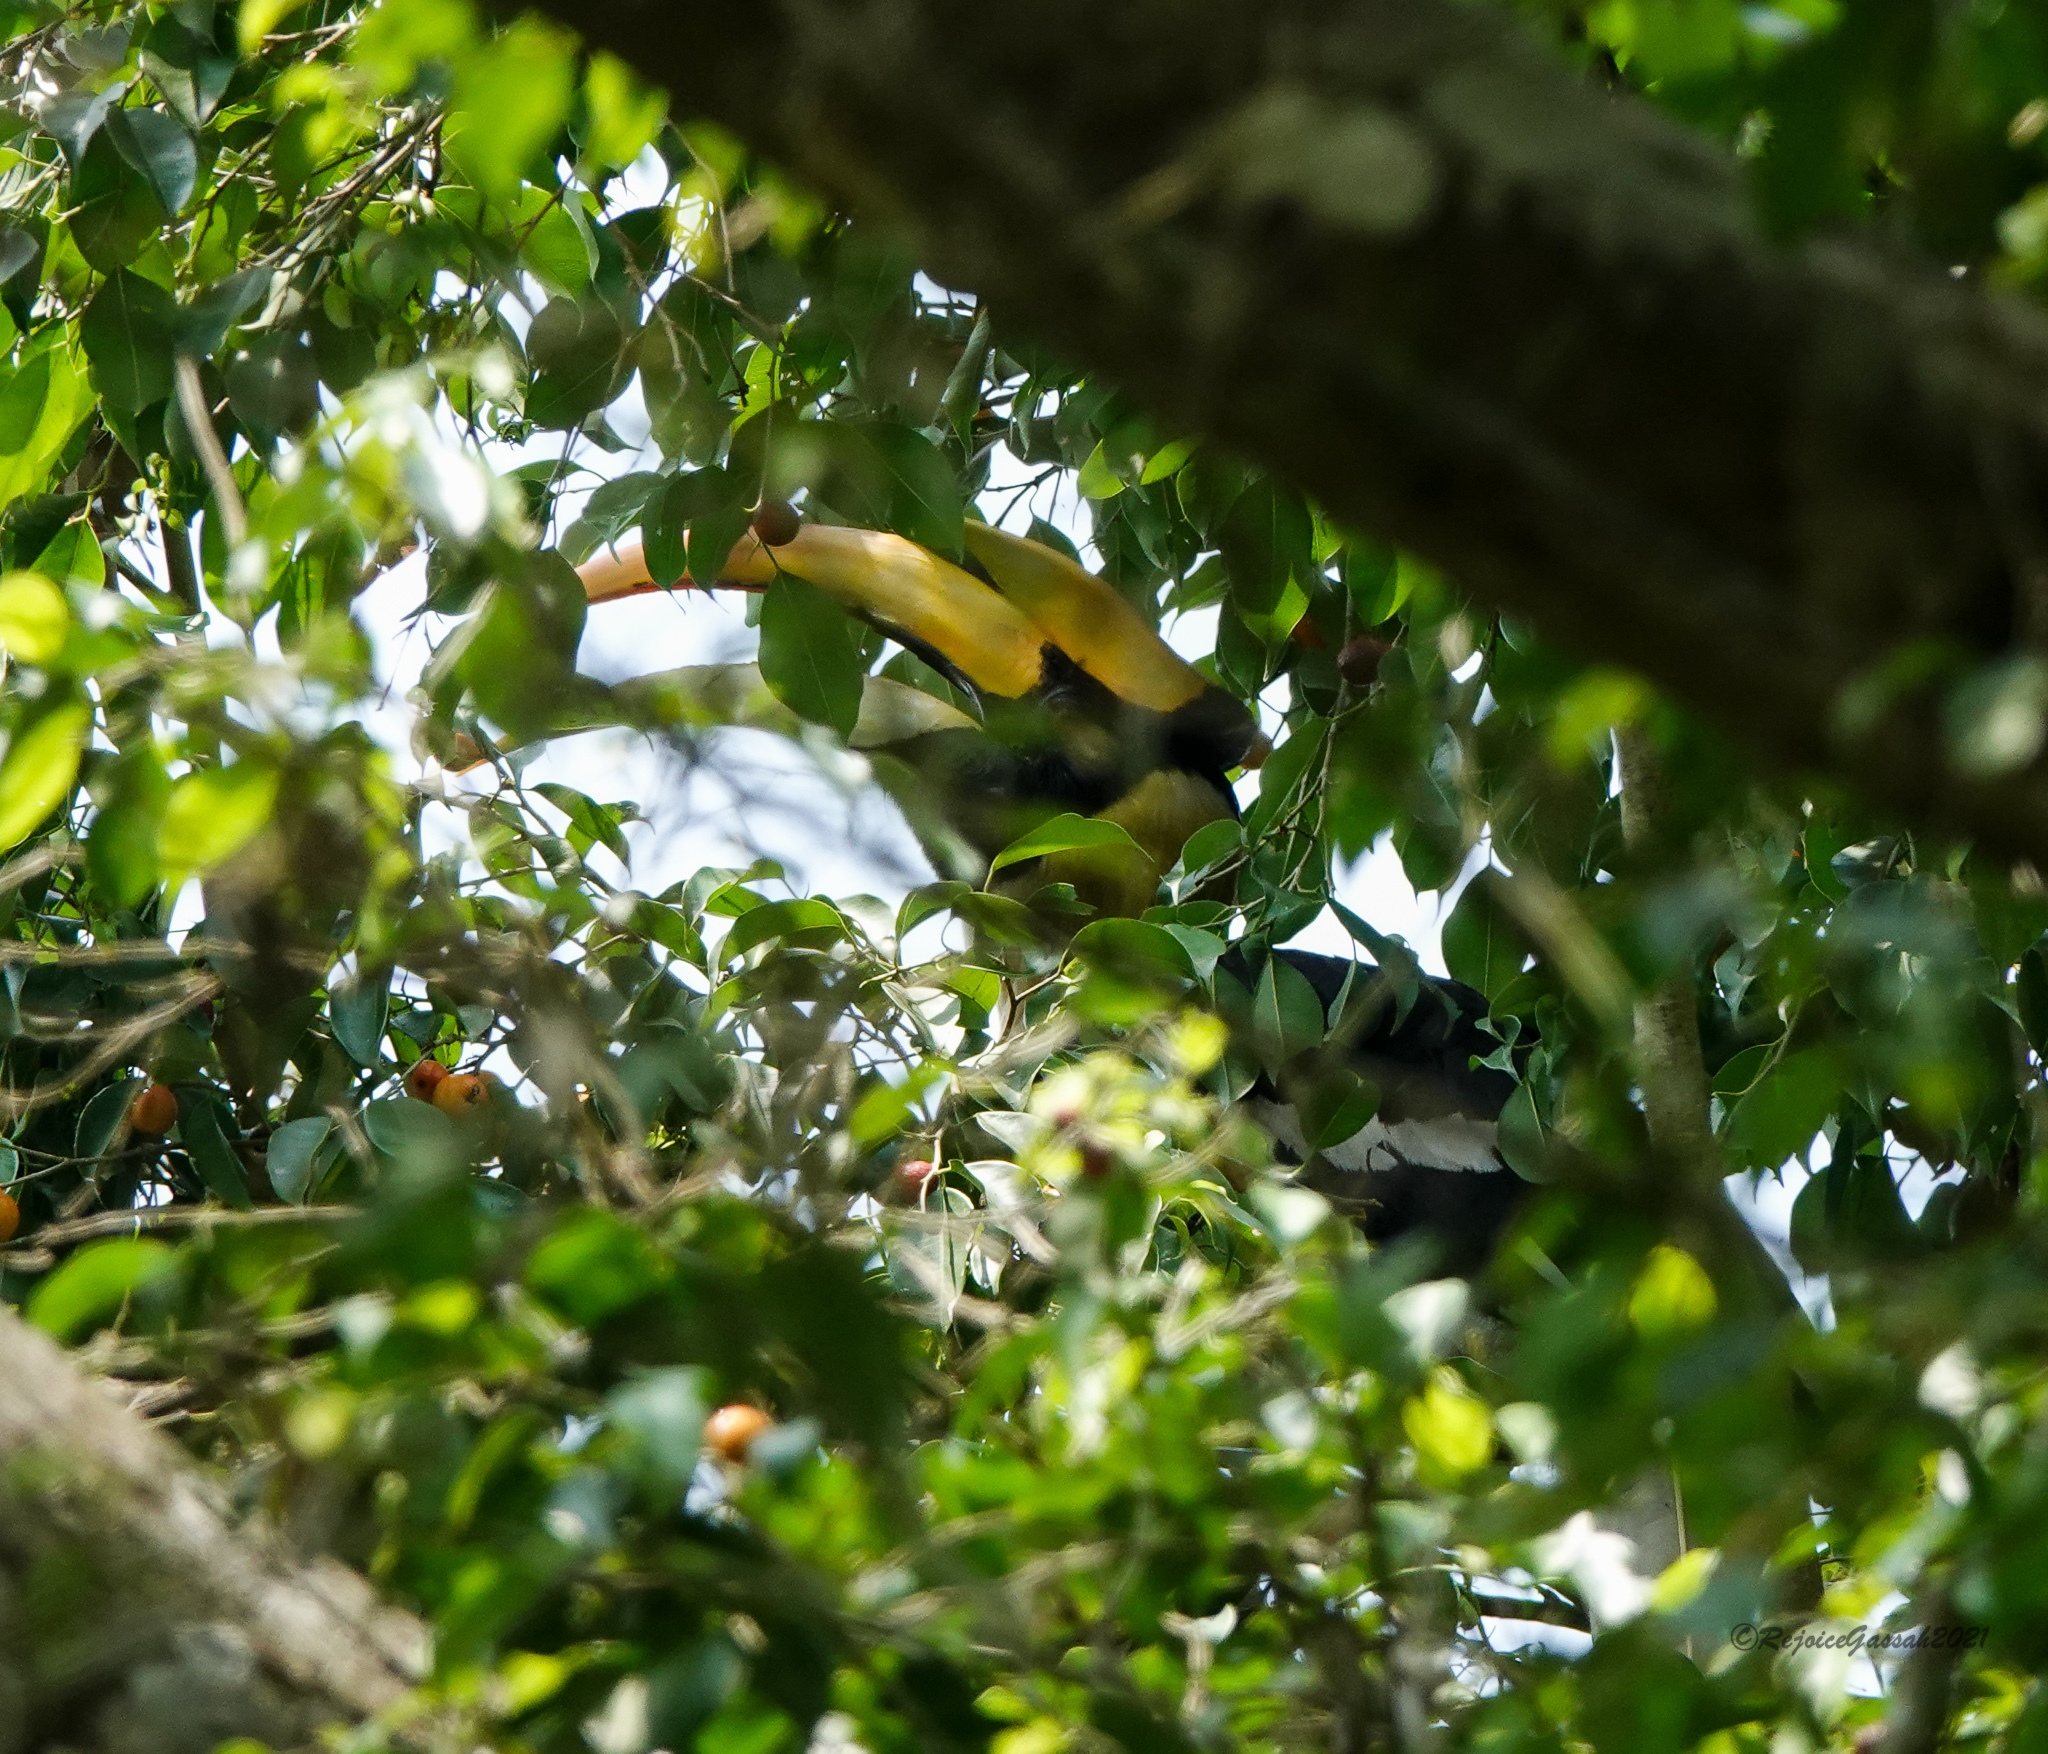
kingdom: Animalia
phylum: Chordata
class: Aves
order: Bucerotiformes
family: Bucerotidae
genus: Buceros
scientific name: Buceros bicornis
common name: Great hornbill
